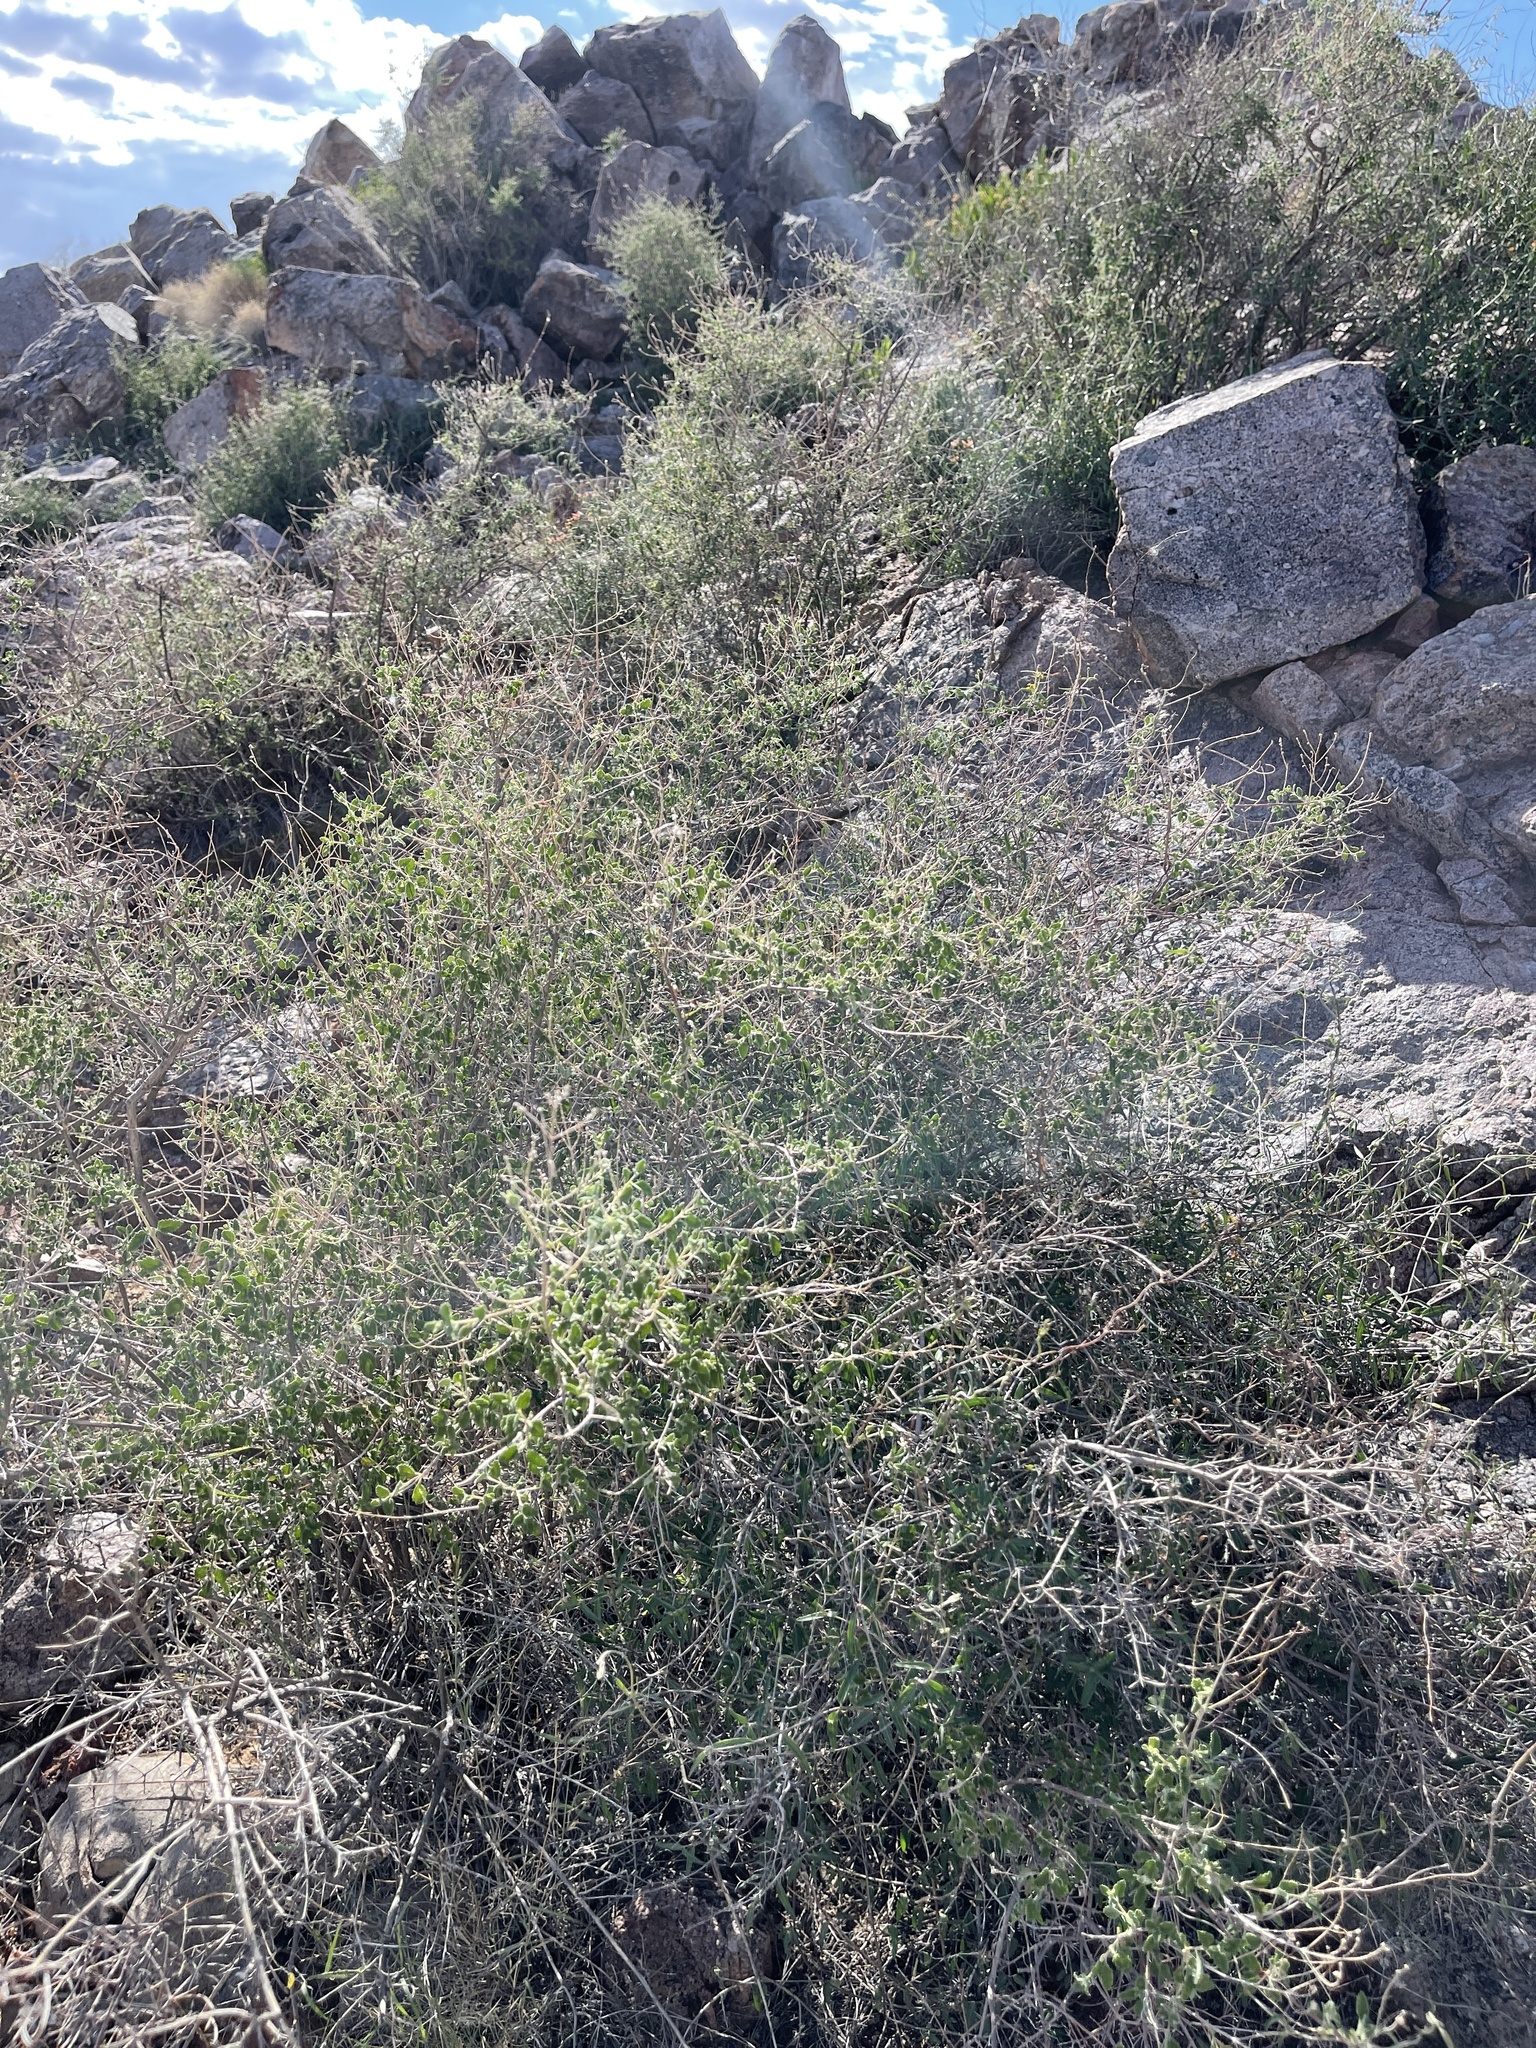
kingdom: Plantae
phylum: Tracheophyta
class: Magnoliopsida
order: Lamiales
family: Verbenaceae
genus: Aloysia
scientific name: Aloysia wrightii
